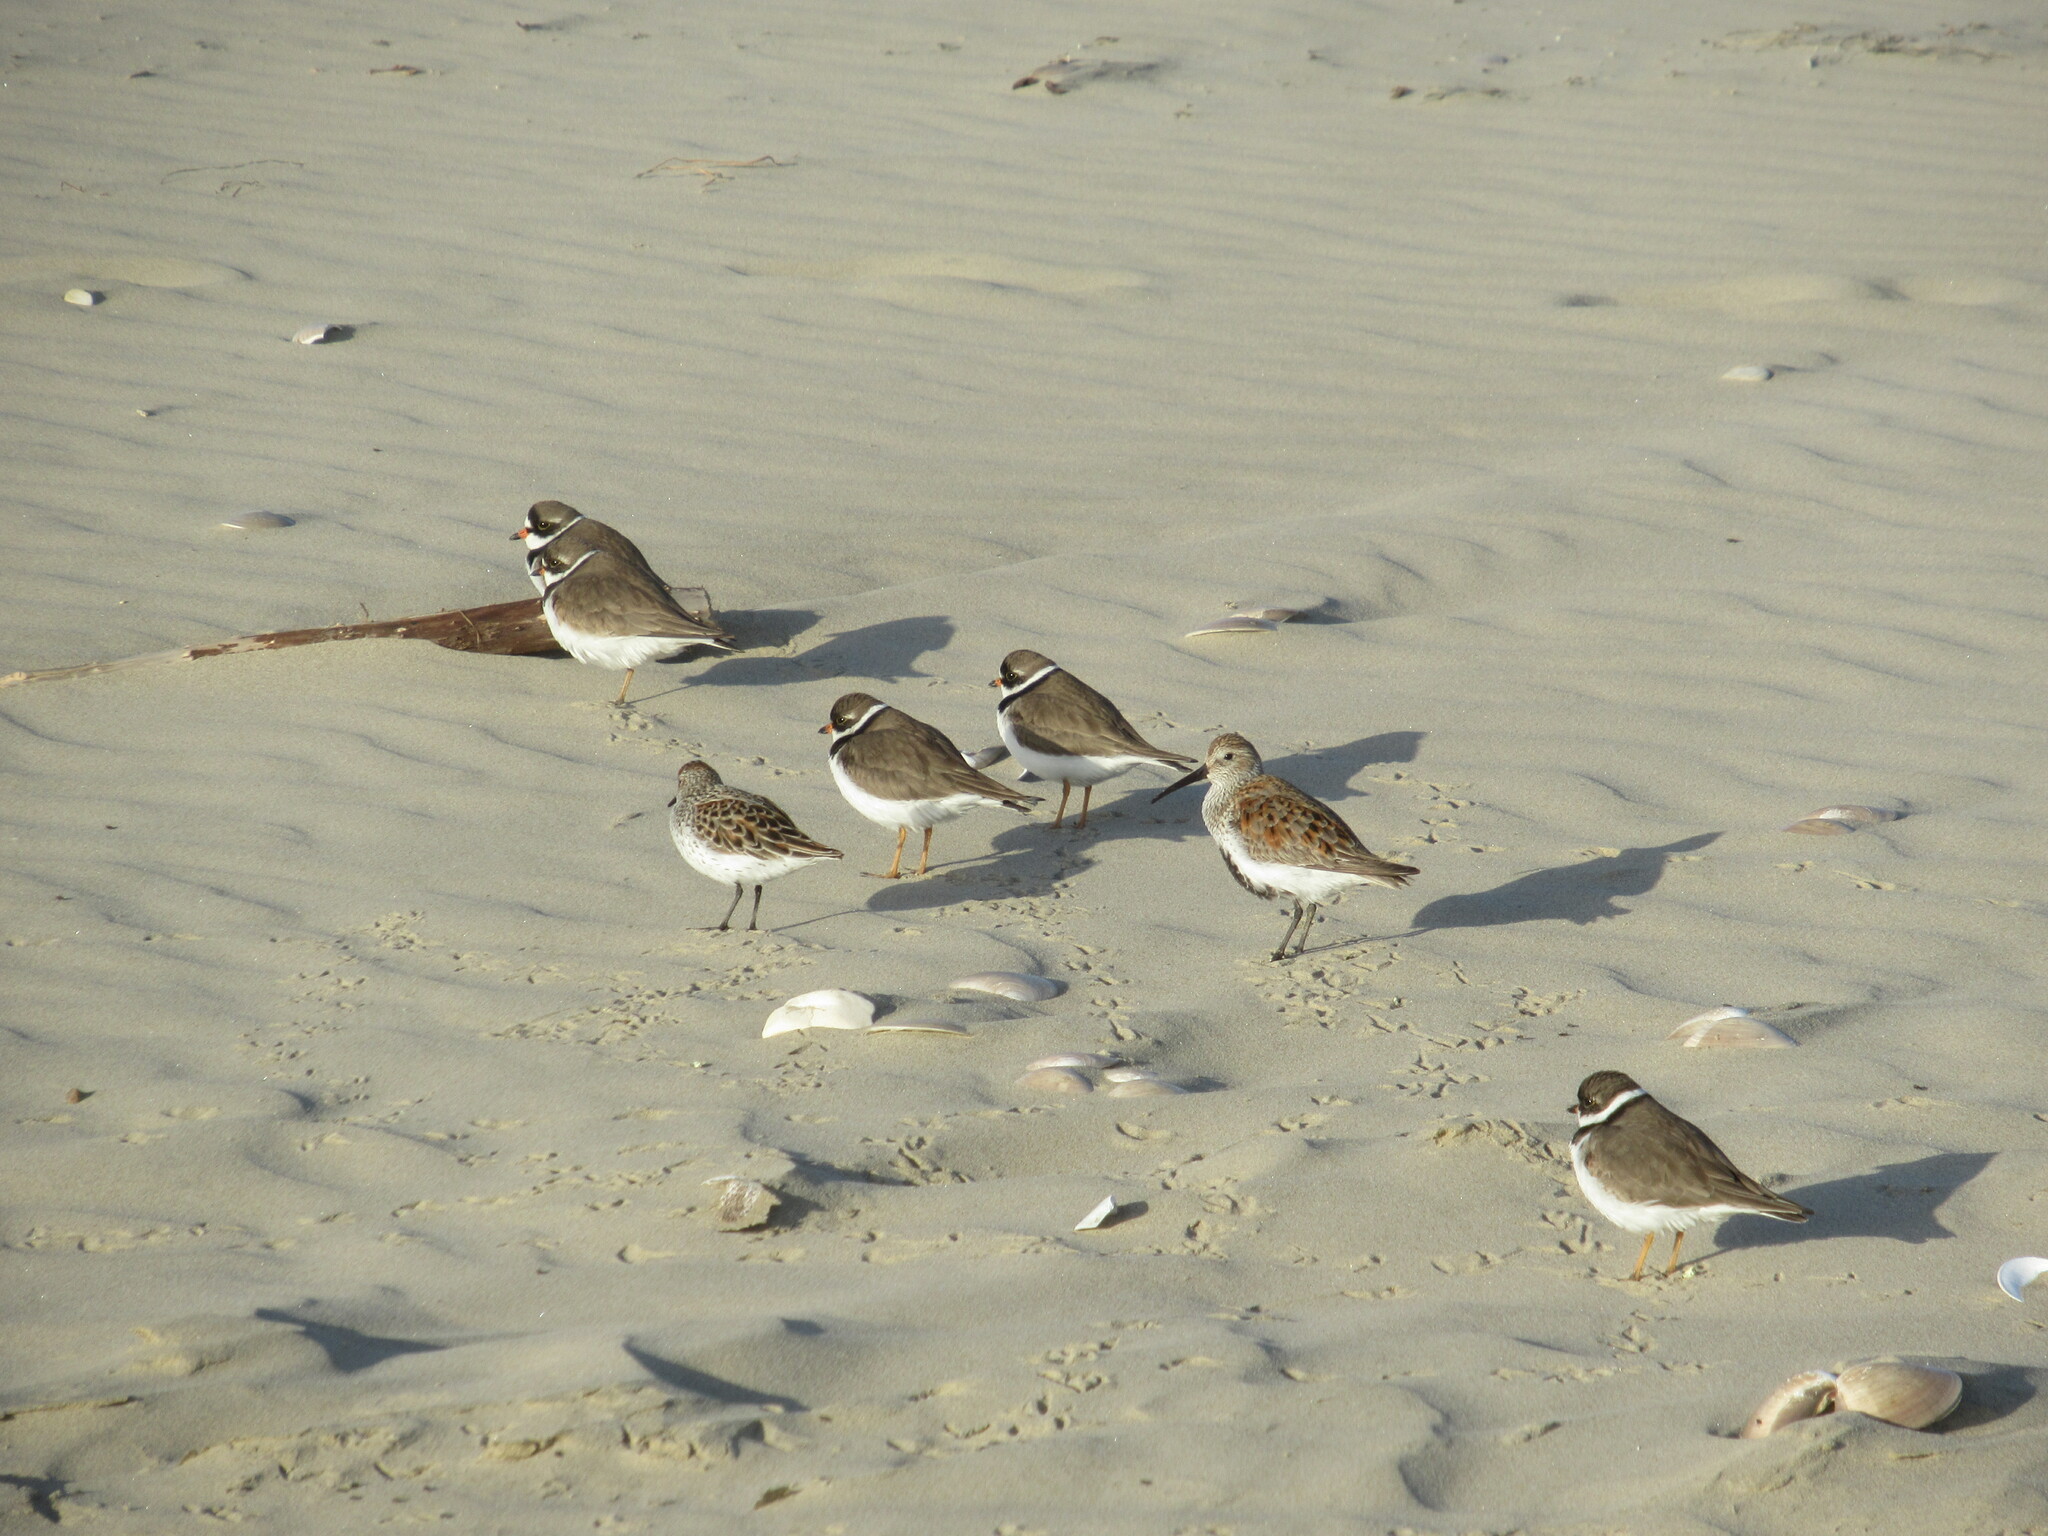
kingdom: Animalia
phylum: Chordata
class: Aves
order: Charadriiformes
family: Charadriidae
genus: Charadrius
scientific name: Charadrius semipalmatus
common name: Semipalmated plover
